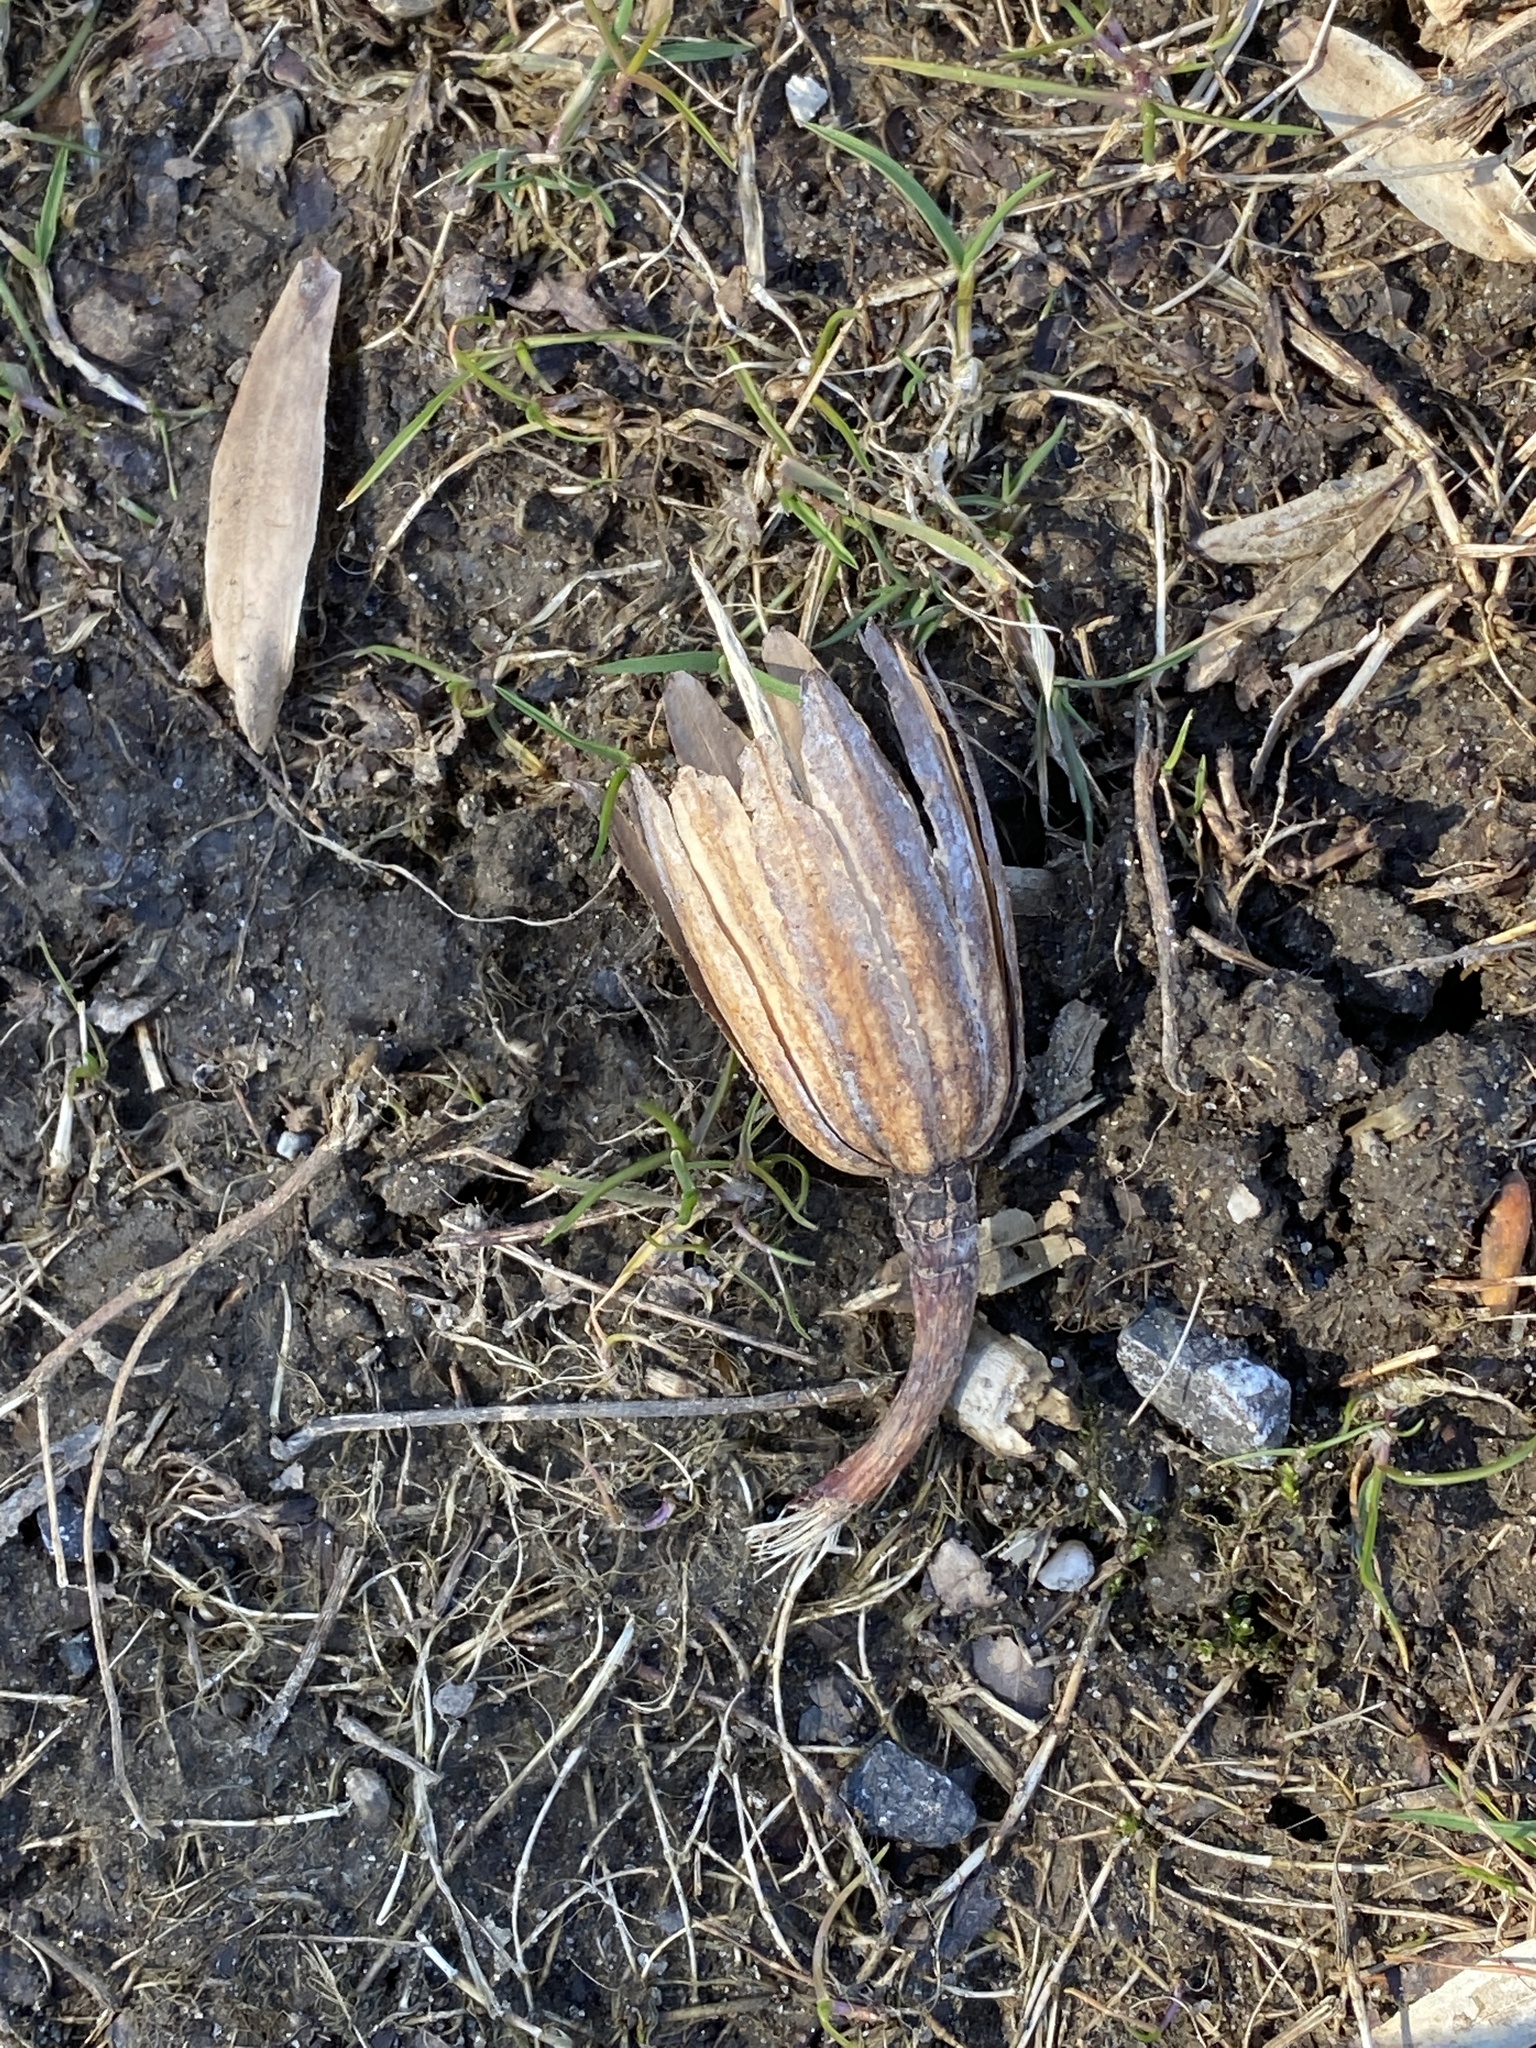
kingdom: Plantae
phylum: Tracheophyta
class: Magnoliopsida
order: Magnoliales
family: Magnoliaceae
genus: Liriodendron
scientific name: Liriodendron tulipifera
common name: Tulip tree
